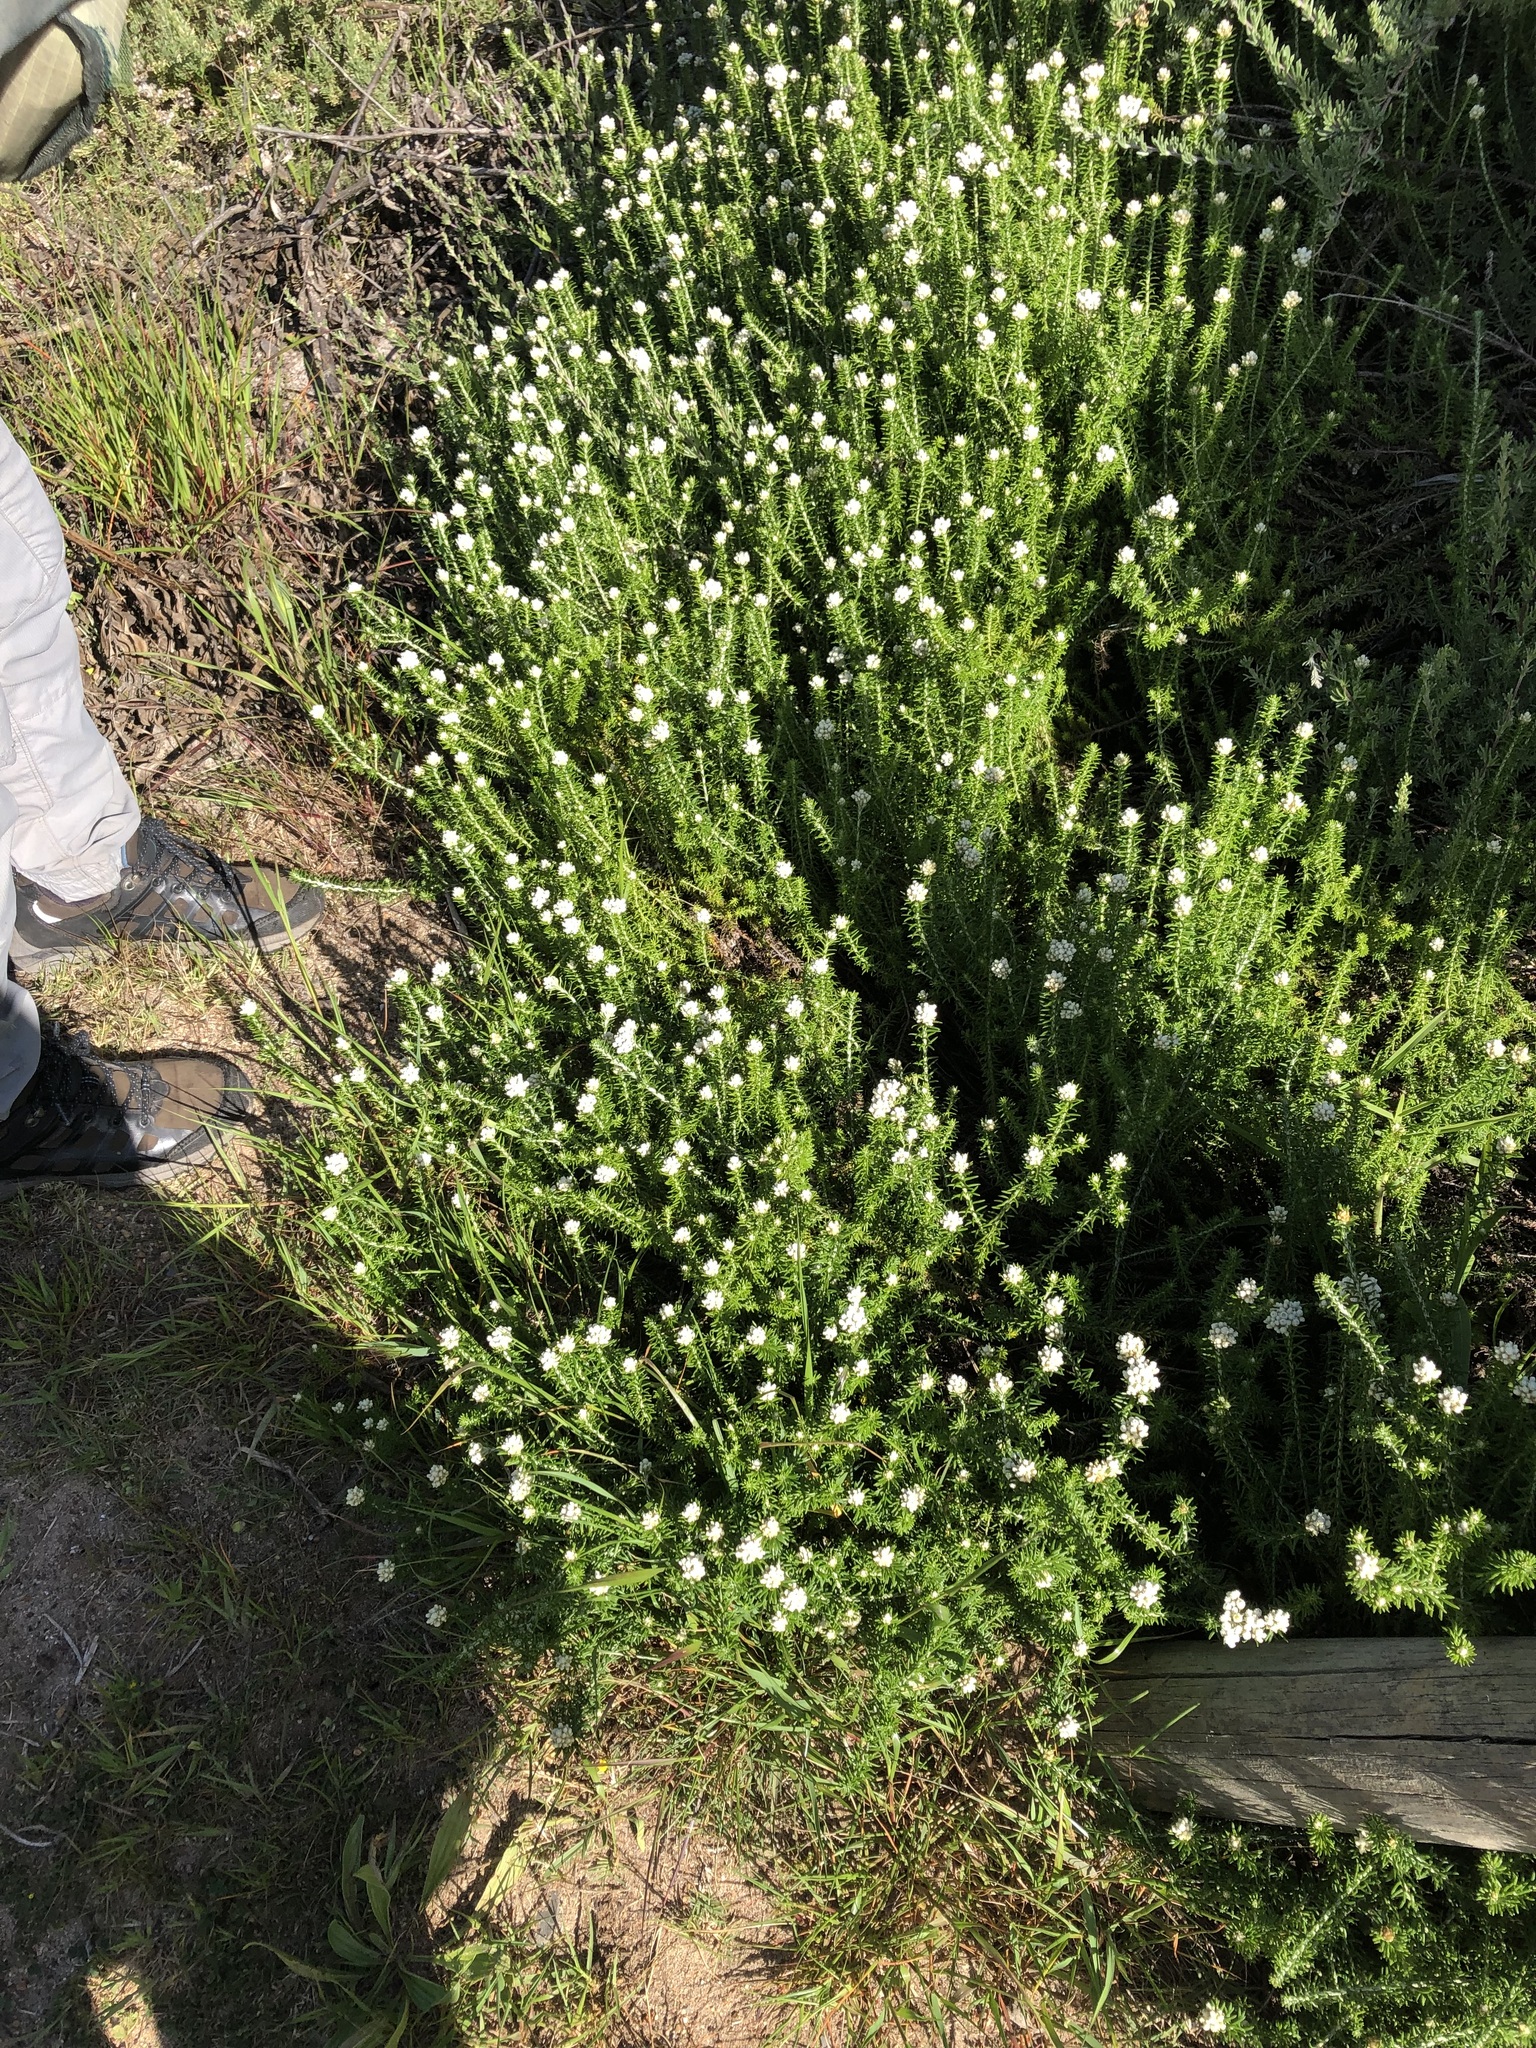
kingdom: Plantae
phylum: Tracheophyta
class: Magnoliopsida
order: Asterales
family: Asteraceae
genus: Helichrysum
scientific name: Helichrysum teretifolium
